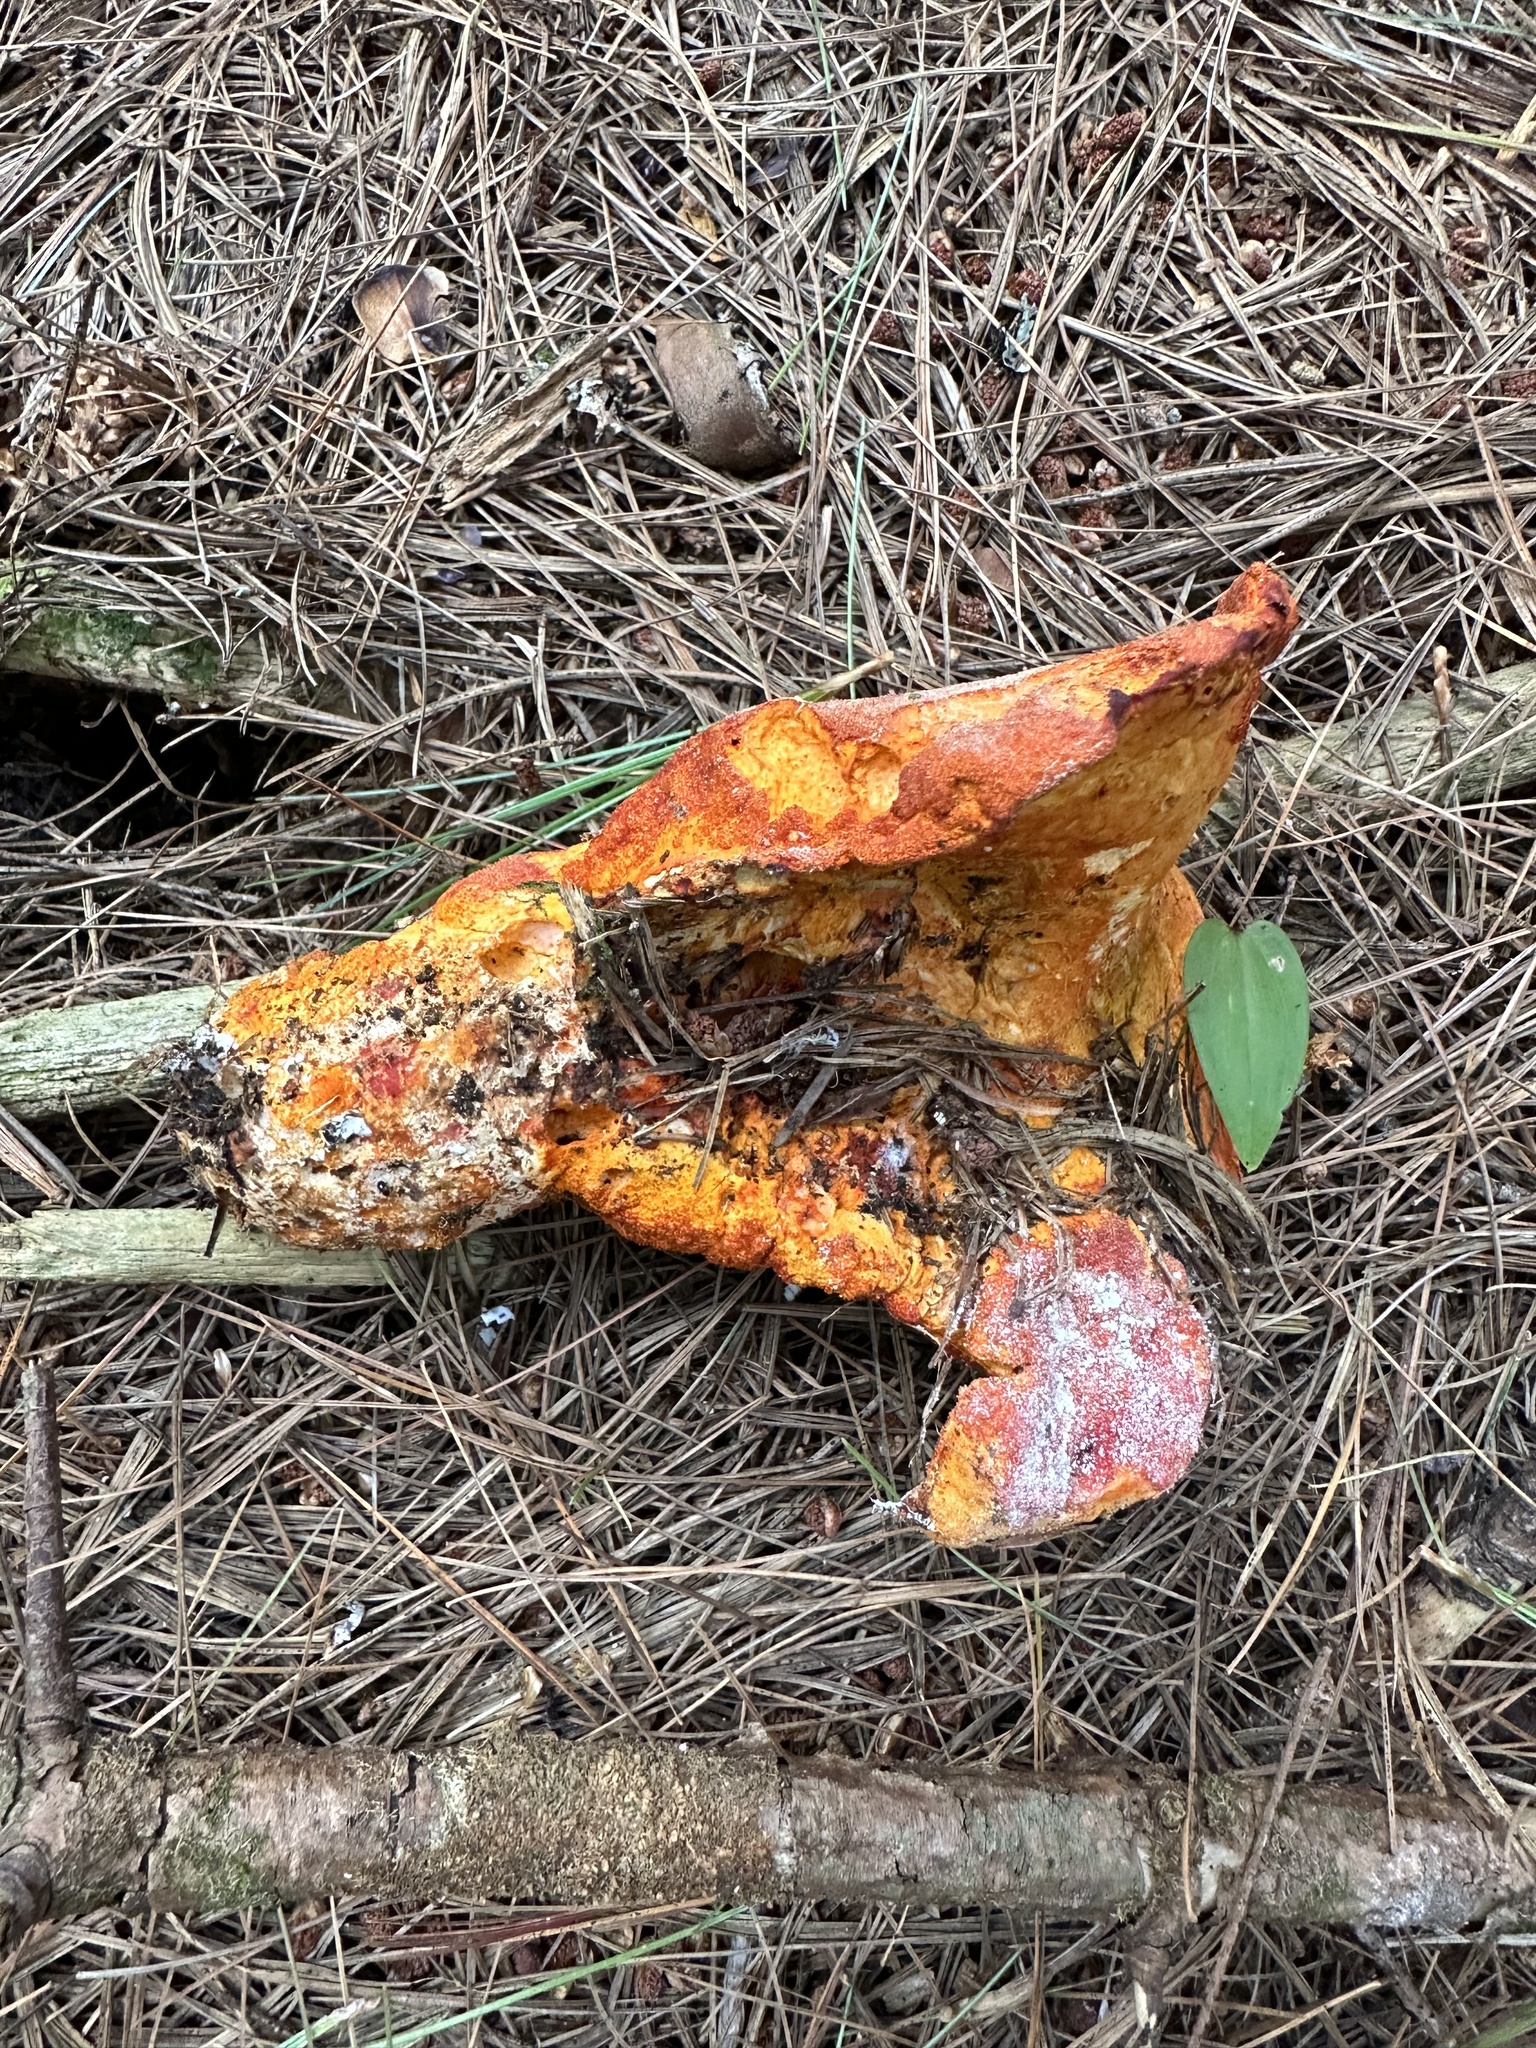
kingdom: Fungi
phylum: Ascomycota
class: Sordariomycetes
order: Hypocreales
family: Hypocreaceae
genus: Hypomyces
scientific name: Hypomyces lactifluorum
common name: Lobster mushroom
